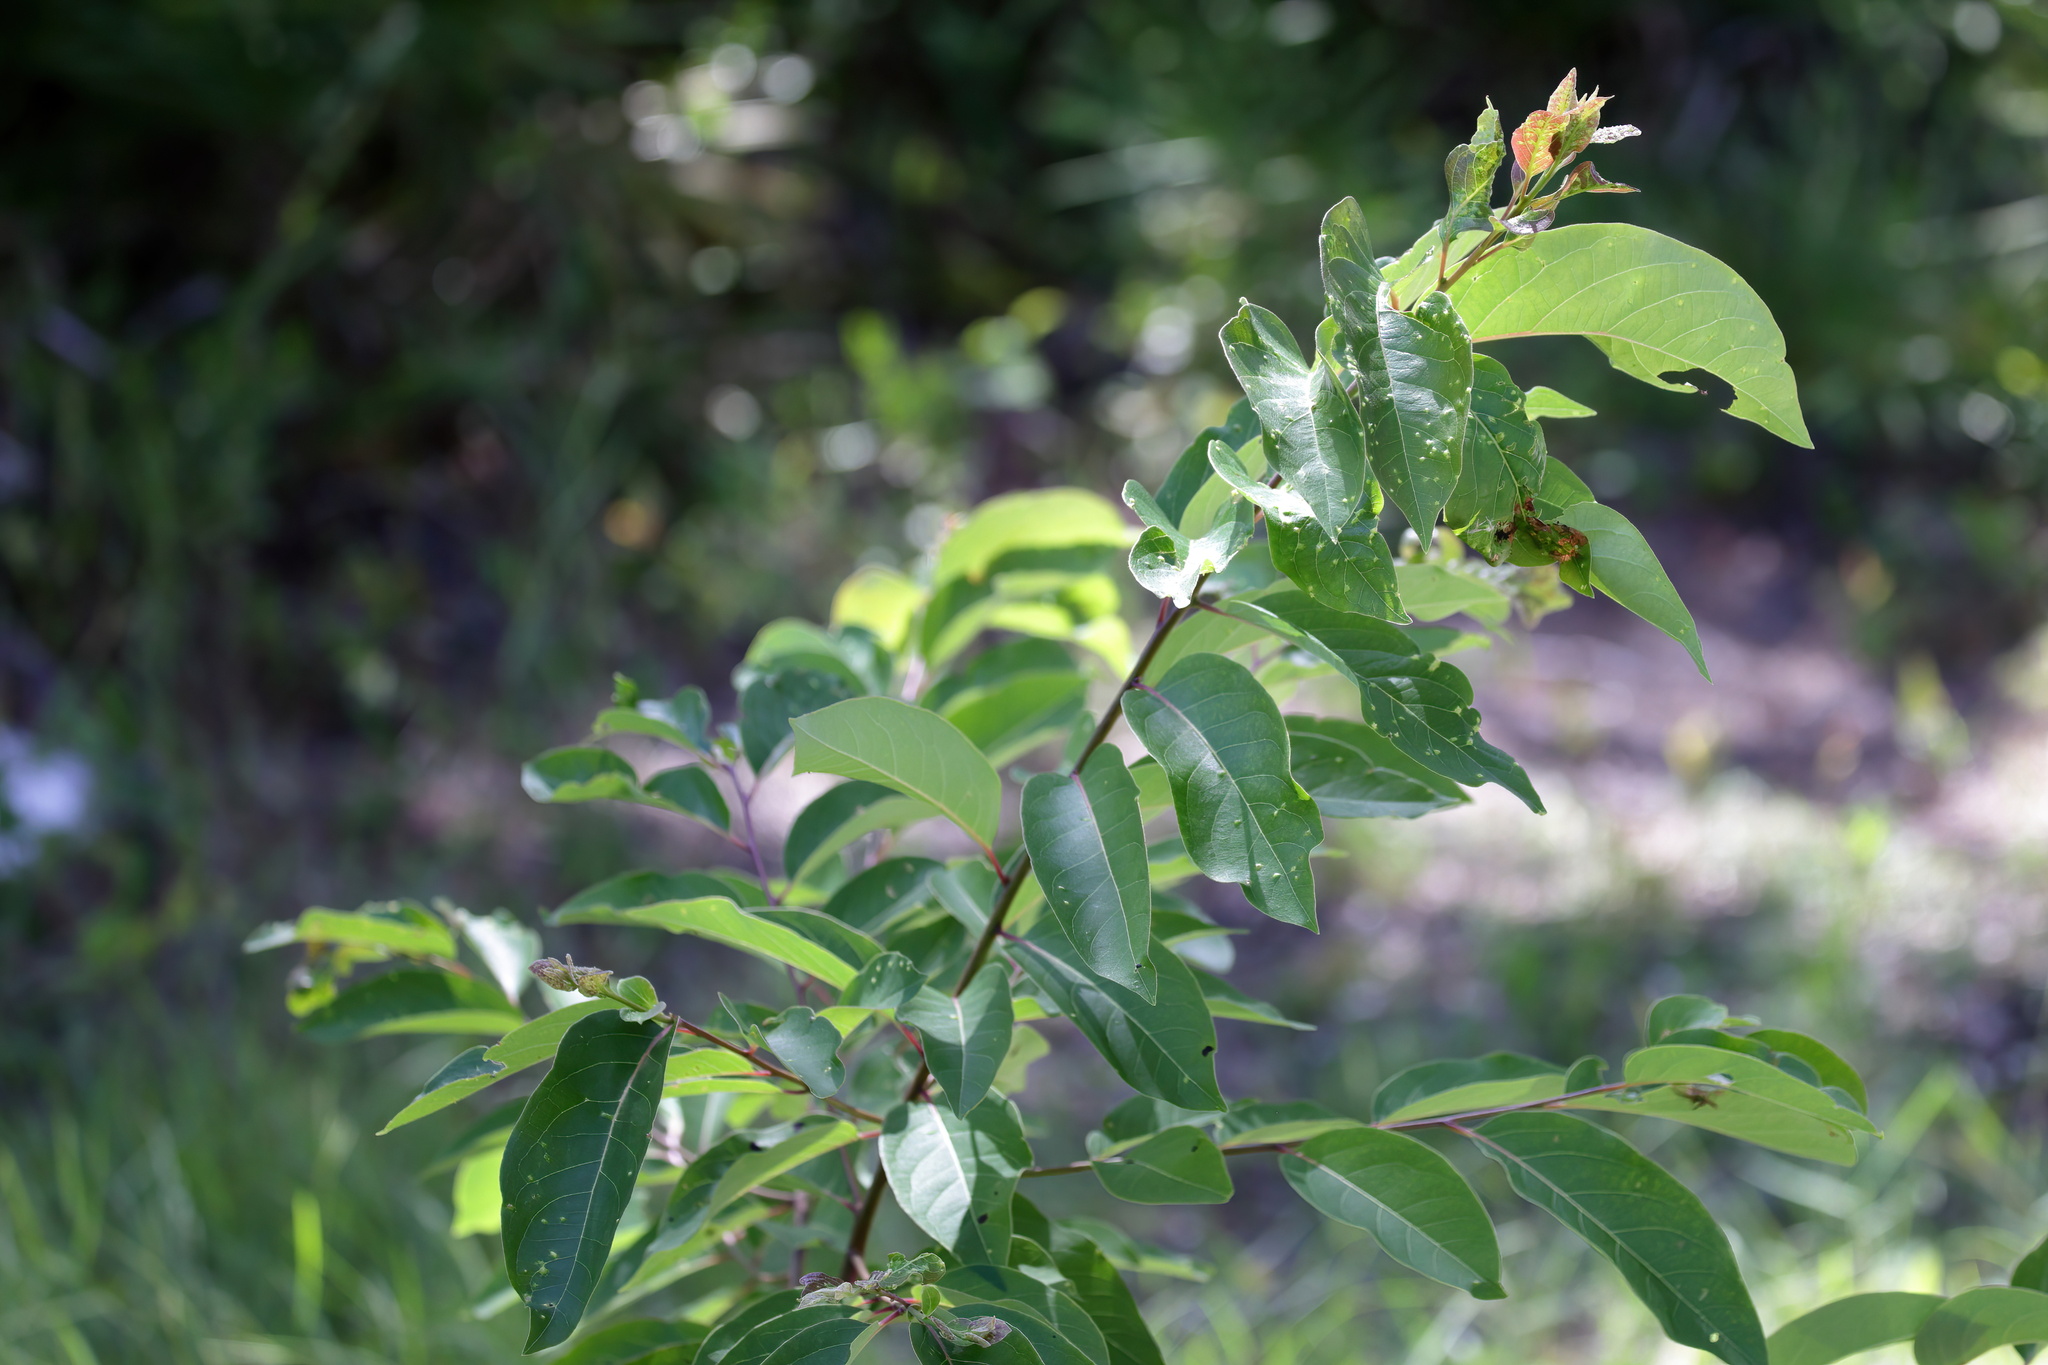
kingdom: Plantae
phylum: Tracheophyta
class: Magnoliopsida
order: Ericales
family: Ebenaceae
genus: Diospyros
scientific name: Diospyros virginiana
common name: Persimmon
